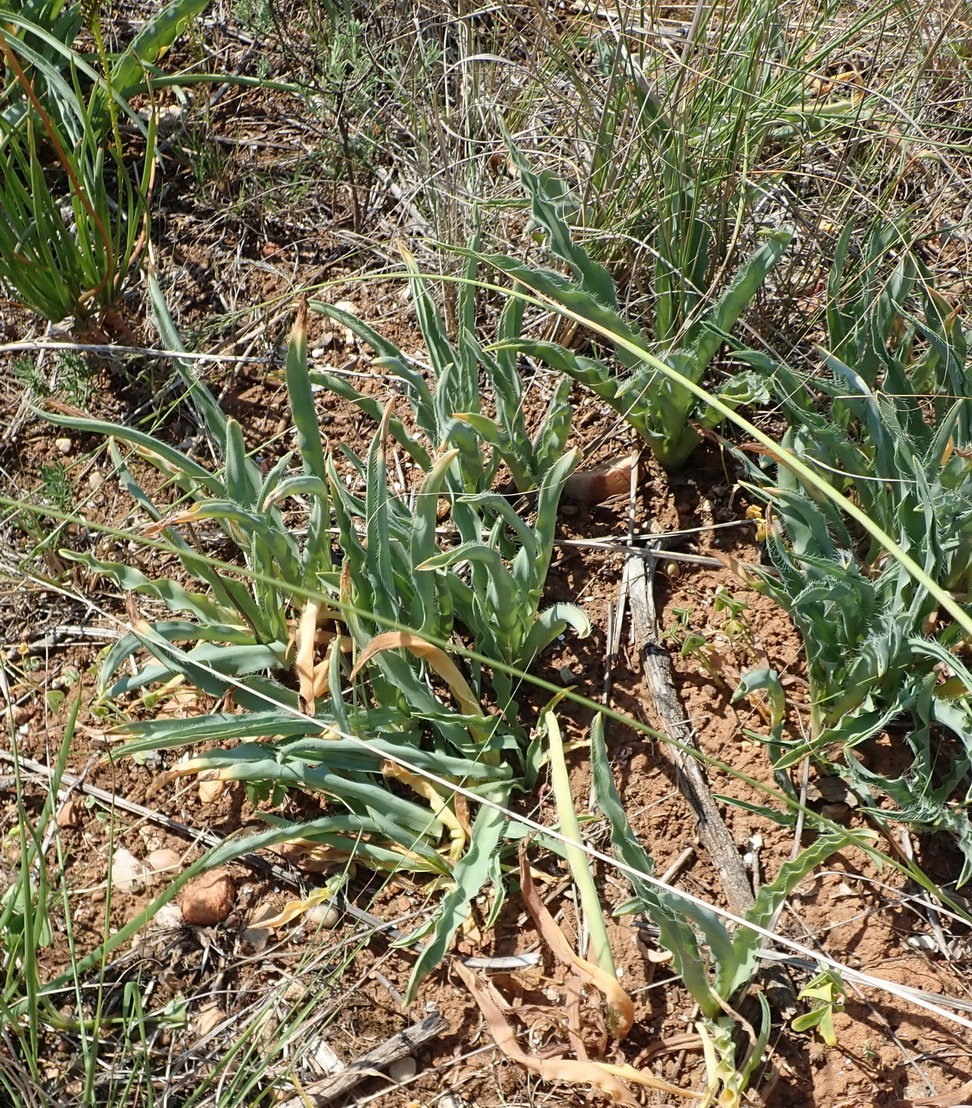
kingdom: Plantae
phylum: Tracheophyta
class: Liliopsida
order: Asparagales
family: Asparagaceae
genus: Drimia
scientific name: Drimia elata
